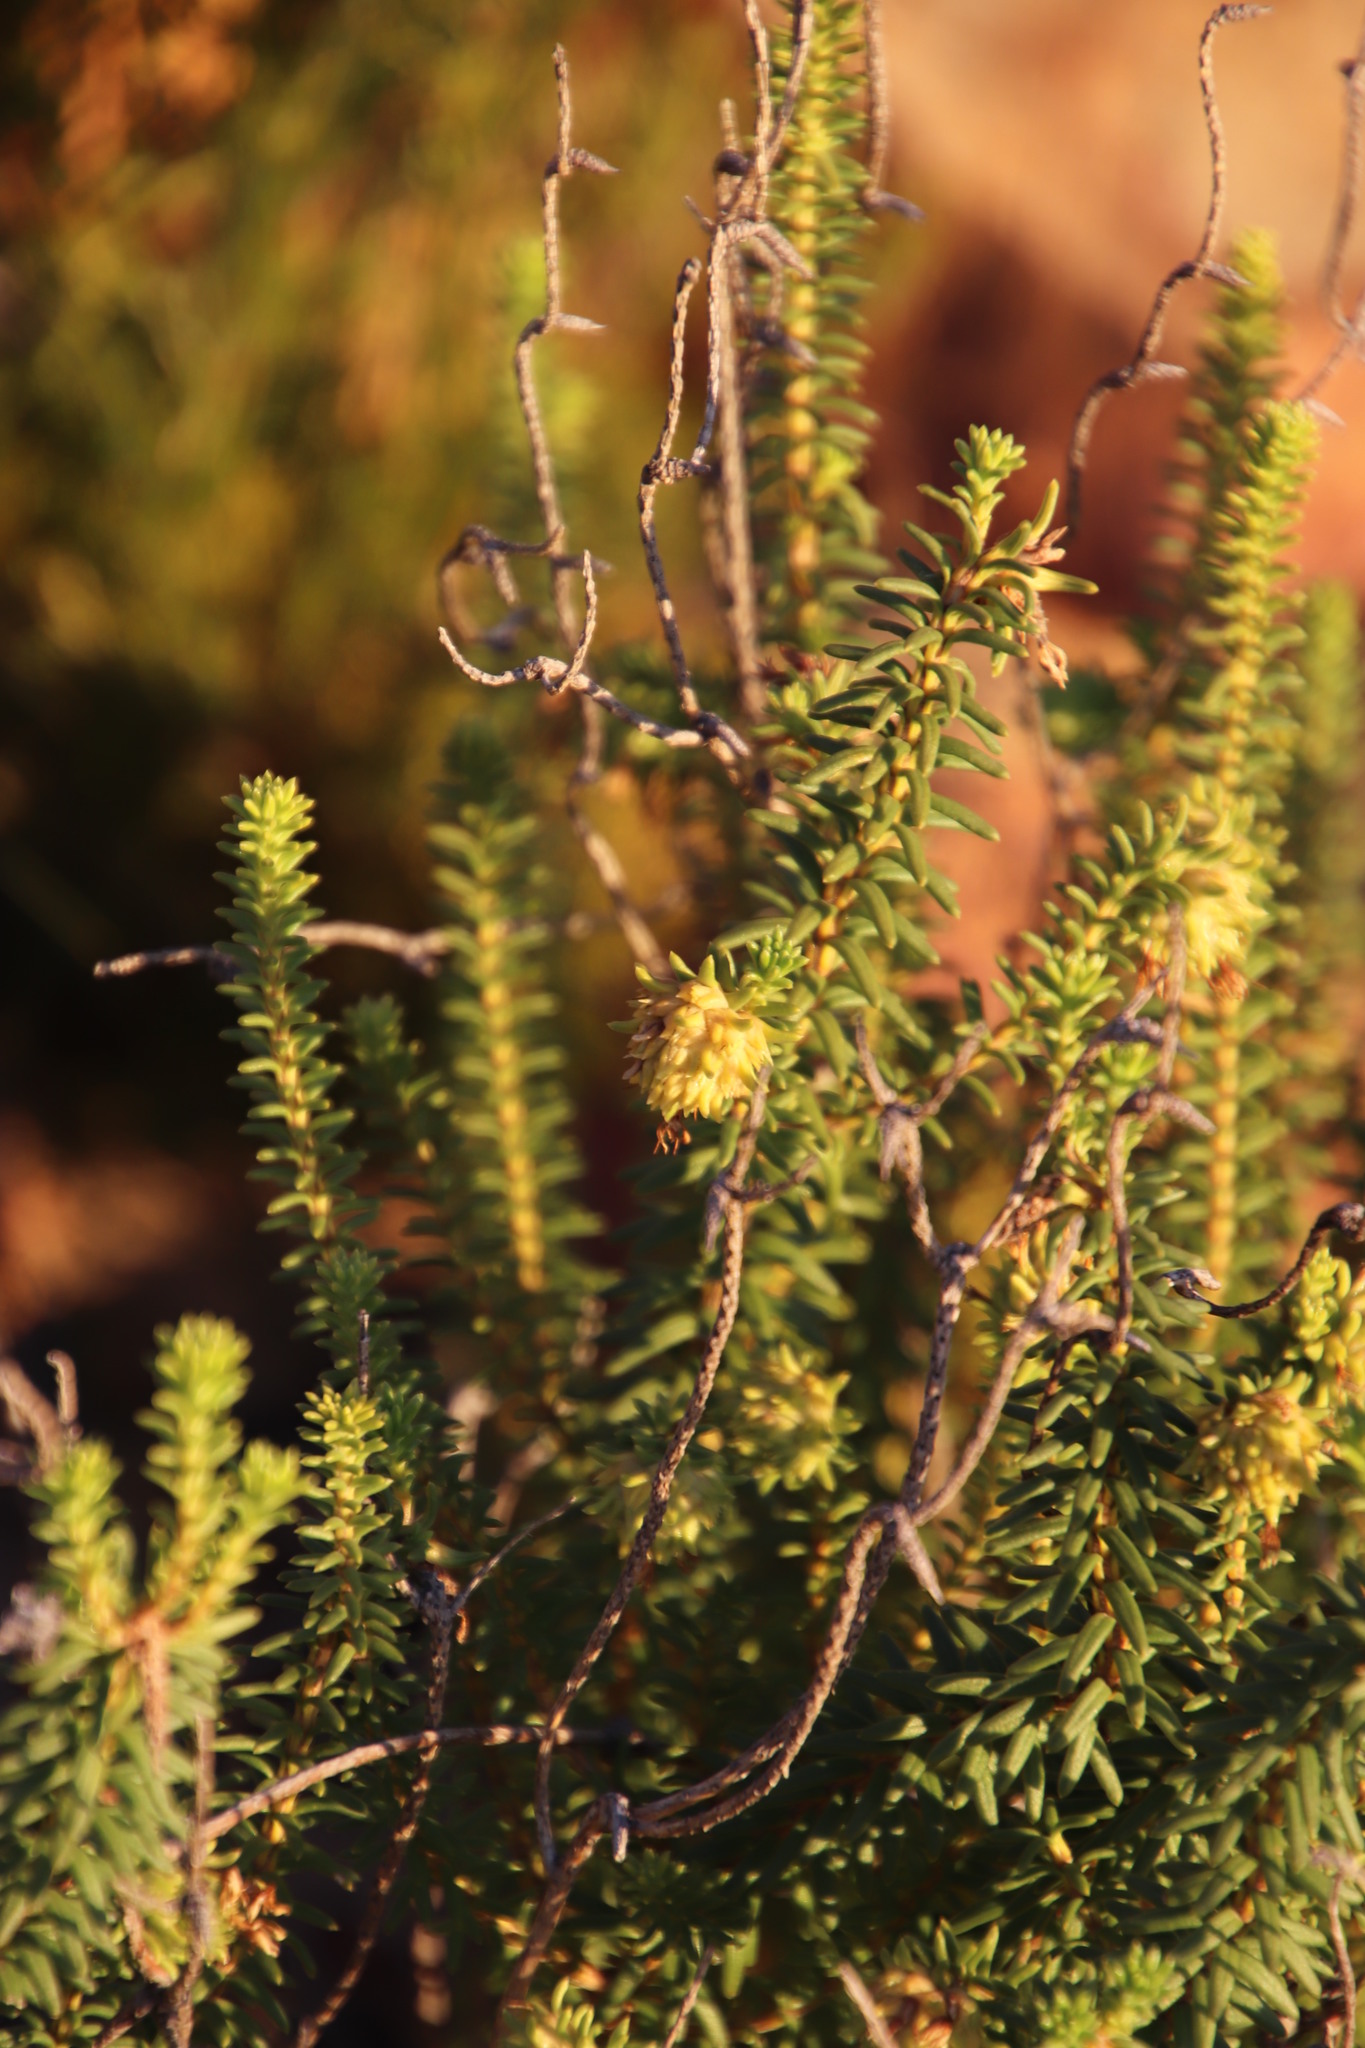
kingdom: Plantae
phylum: Tracheophyta
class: Magnoliopsida
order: Lamiales
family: Stilbaceae
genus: Campylostachys
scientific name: Campylostachys cernua
